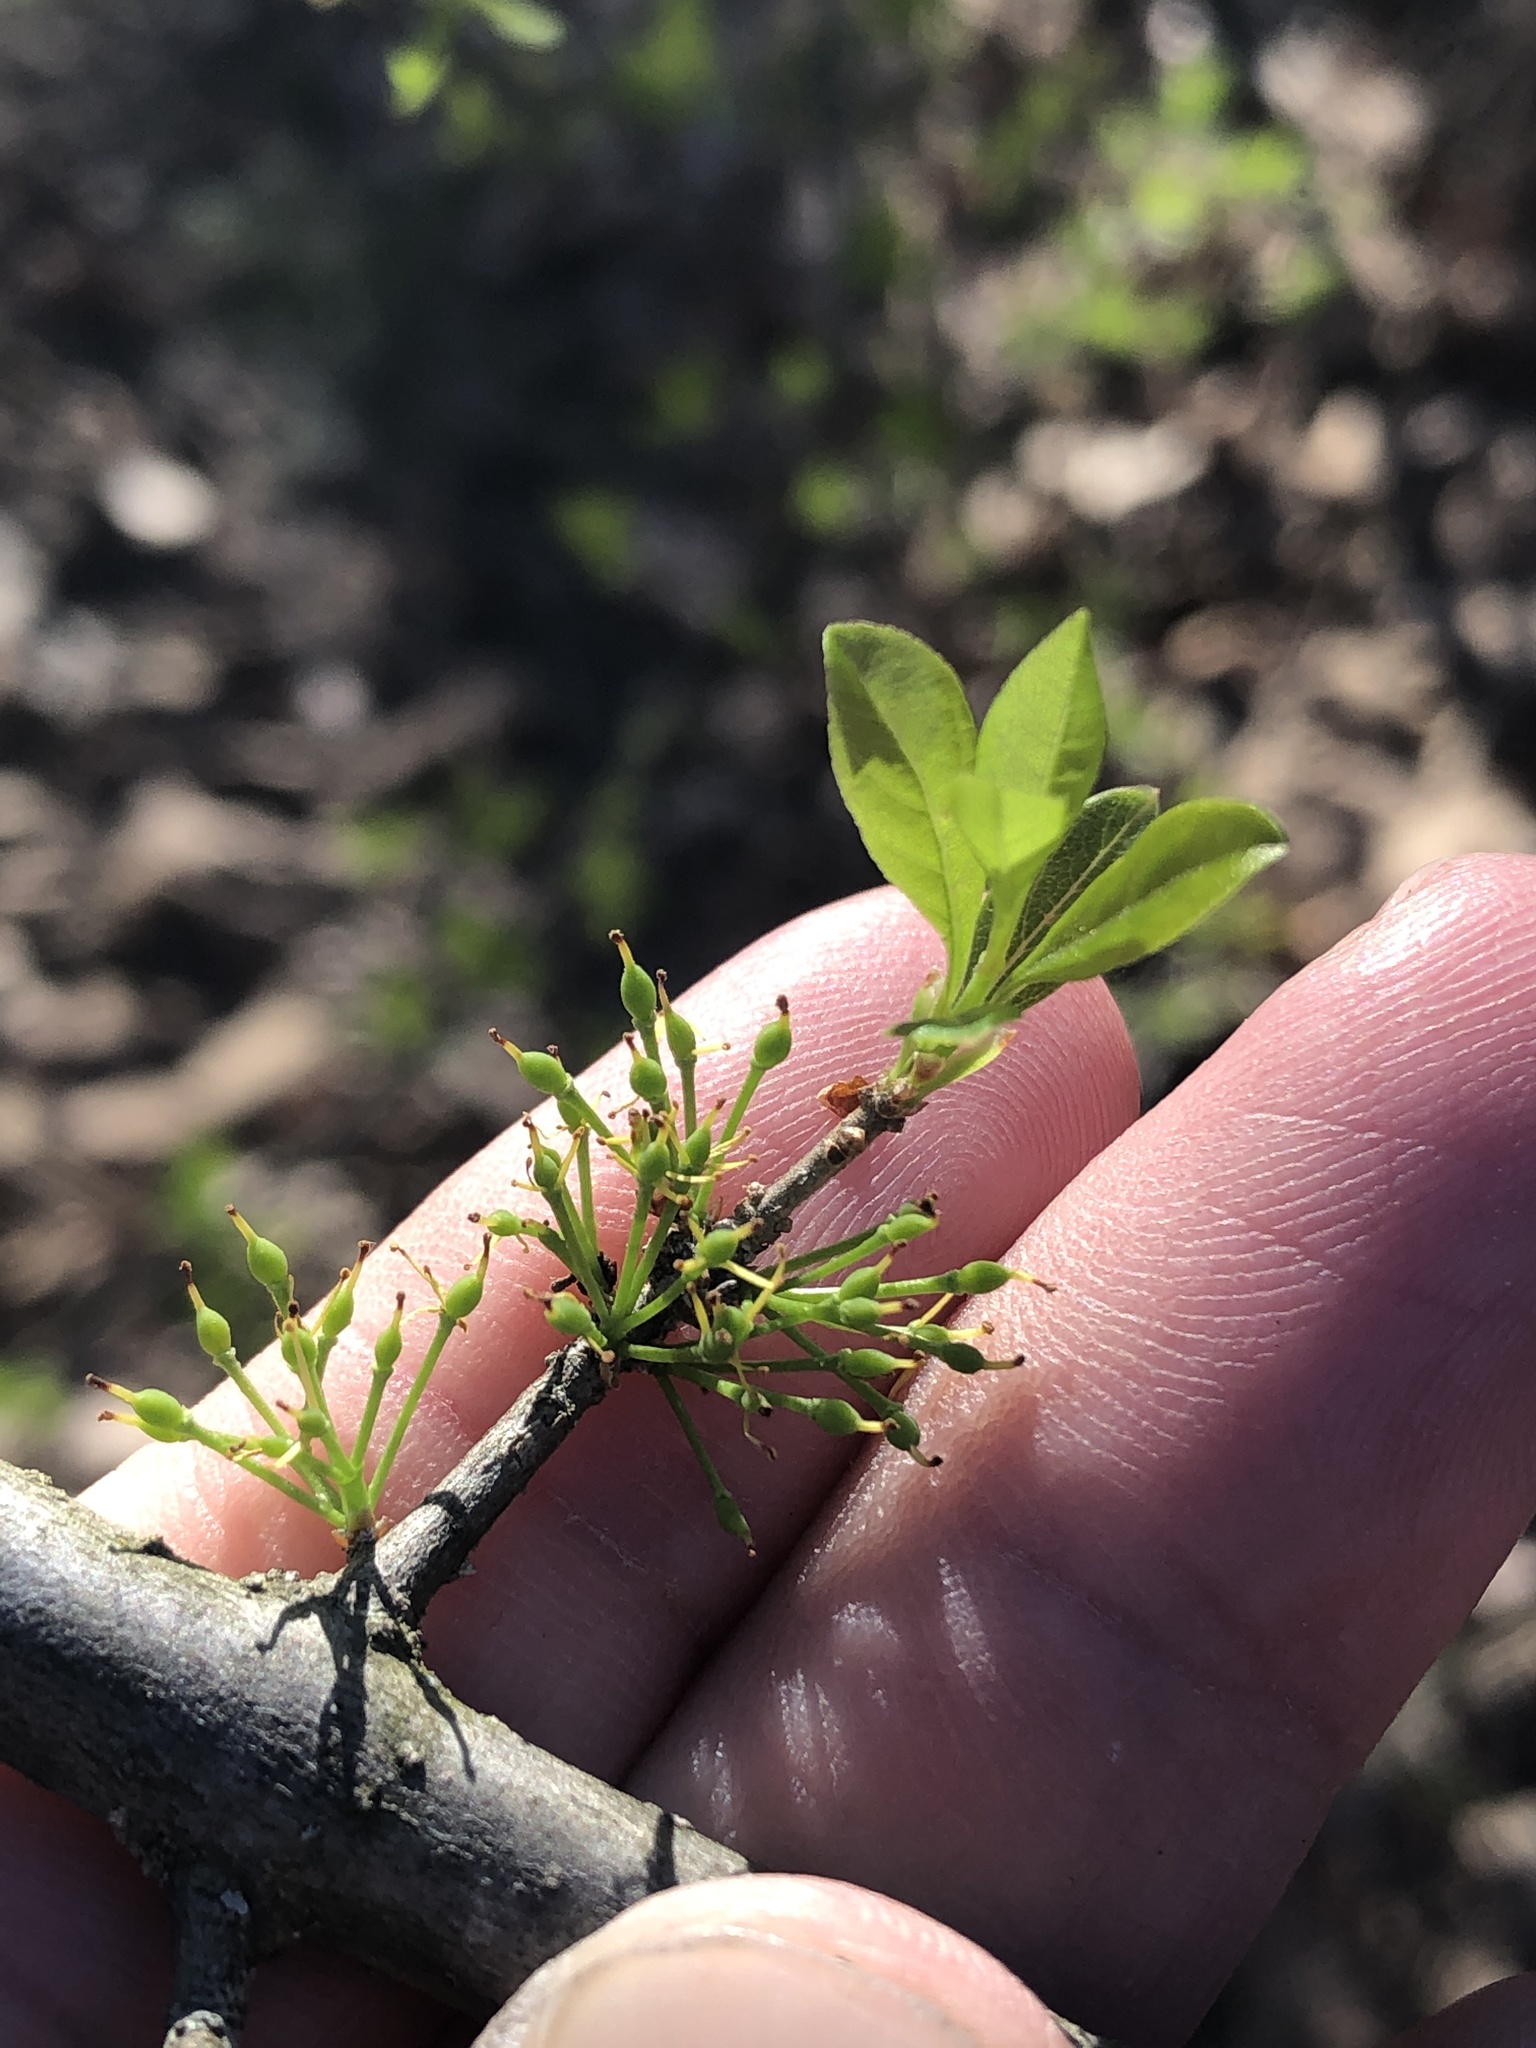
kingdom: Plantae
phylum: Tracheophyta
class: Magnoliopsida
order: Lamiales
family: Oleaceae
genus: Forestiera
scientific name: Forestiera pubescens
